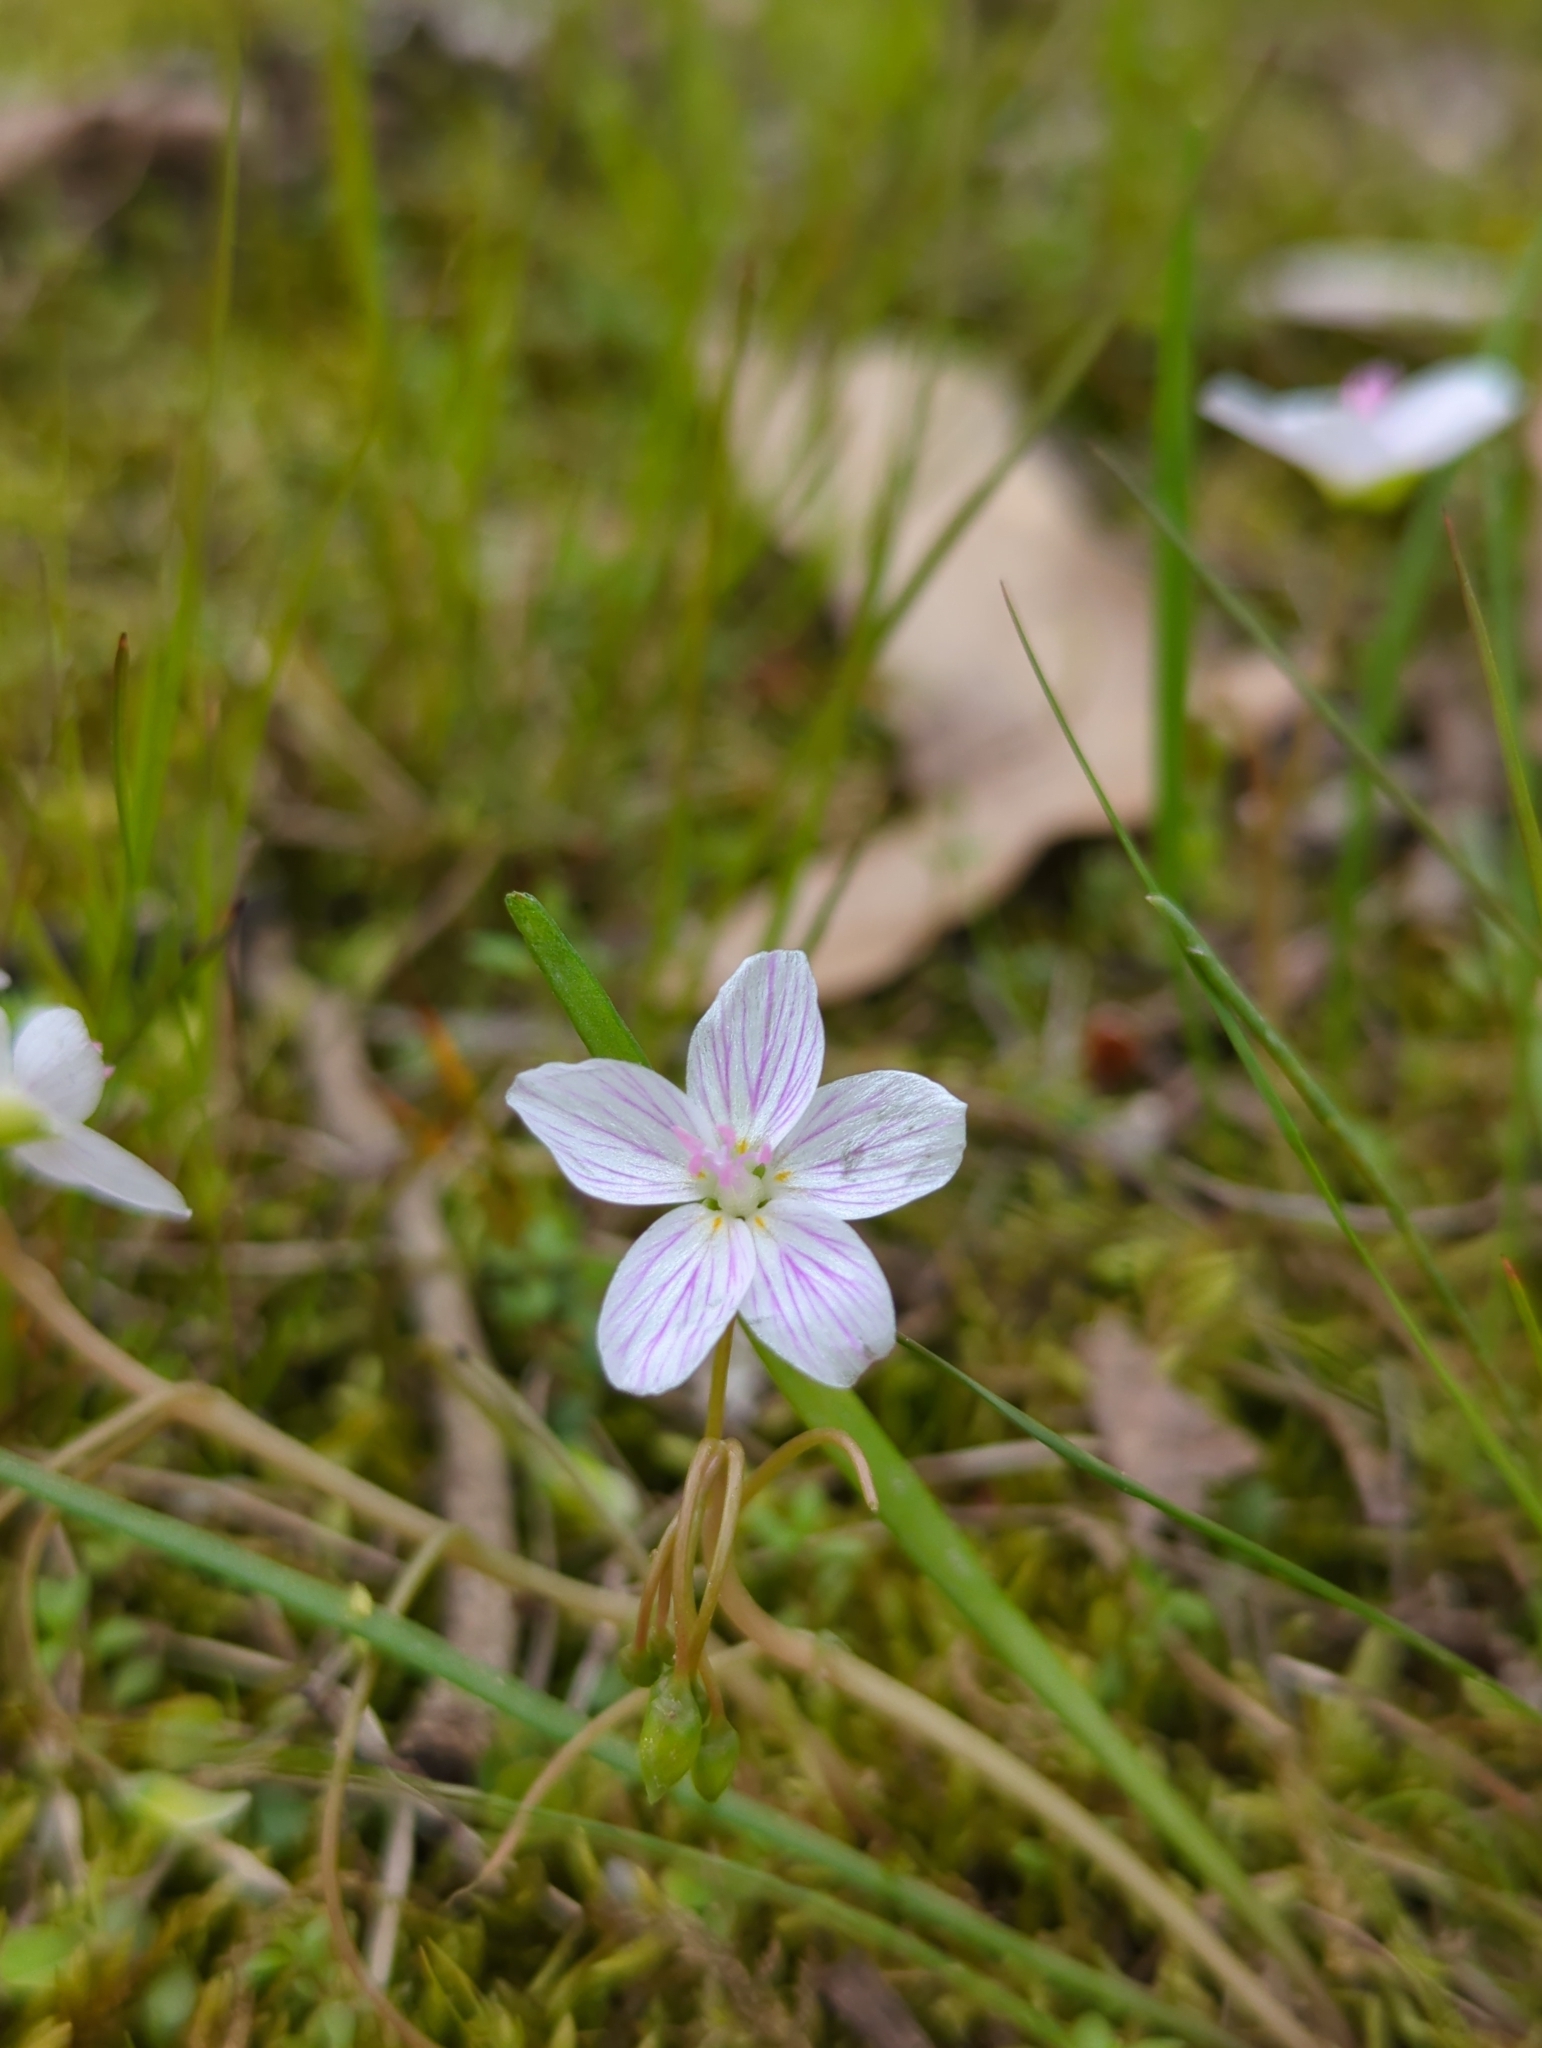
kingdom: Plantae
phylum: Tracheophyta
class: Magnoliopsida
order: Caryophyllales
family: Montiaceae
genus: Claytonia
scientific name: Claytonia virginica
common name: Virginia springbeauty
